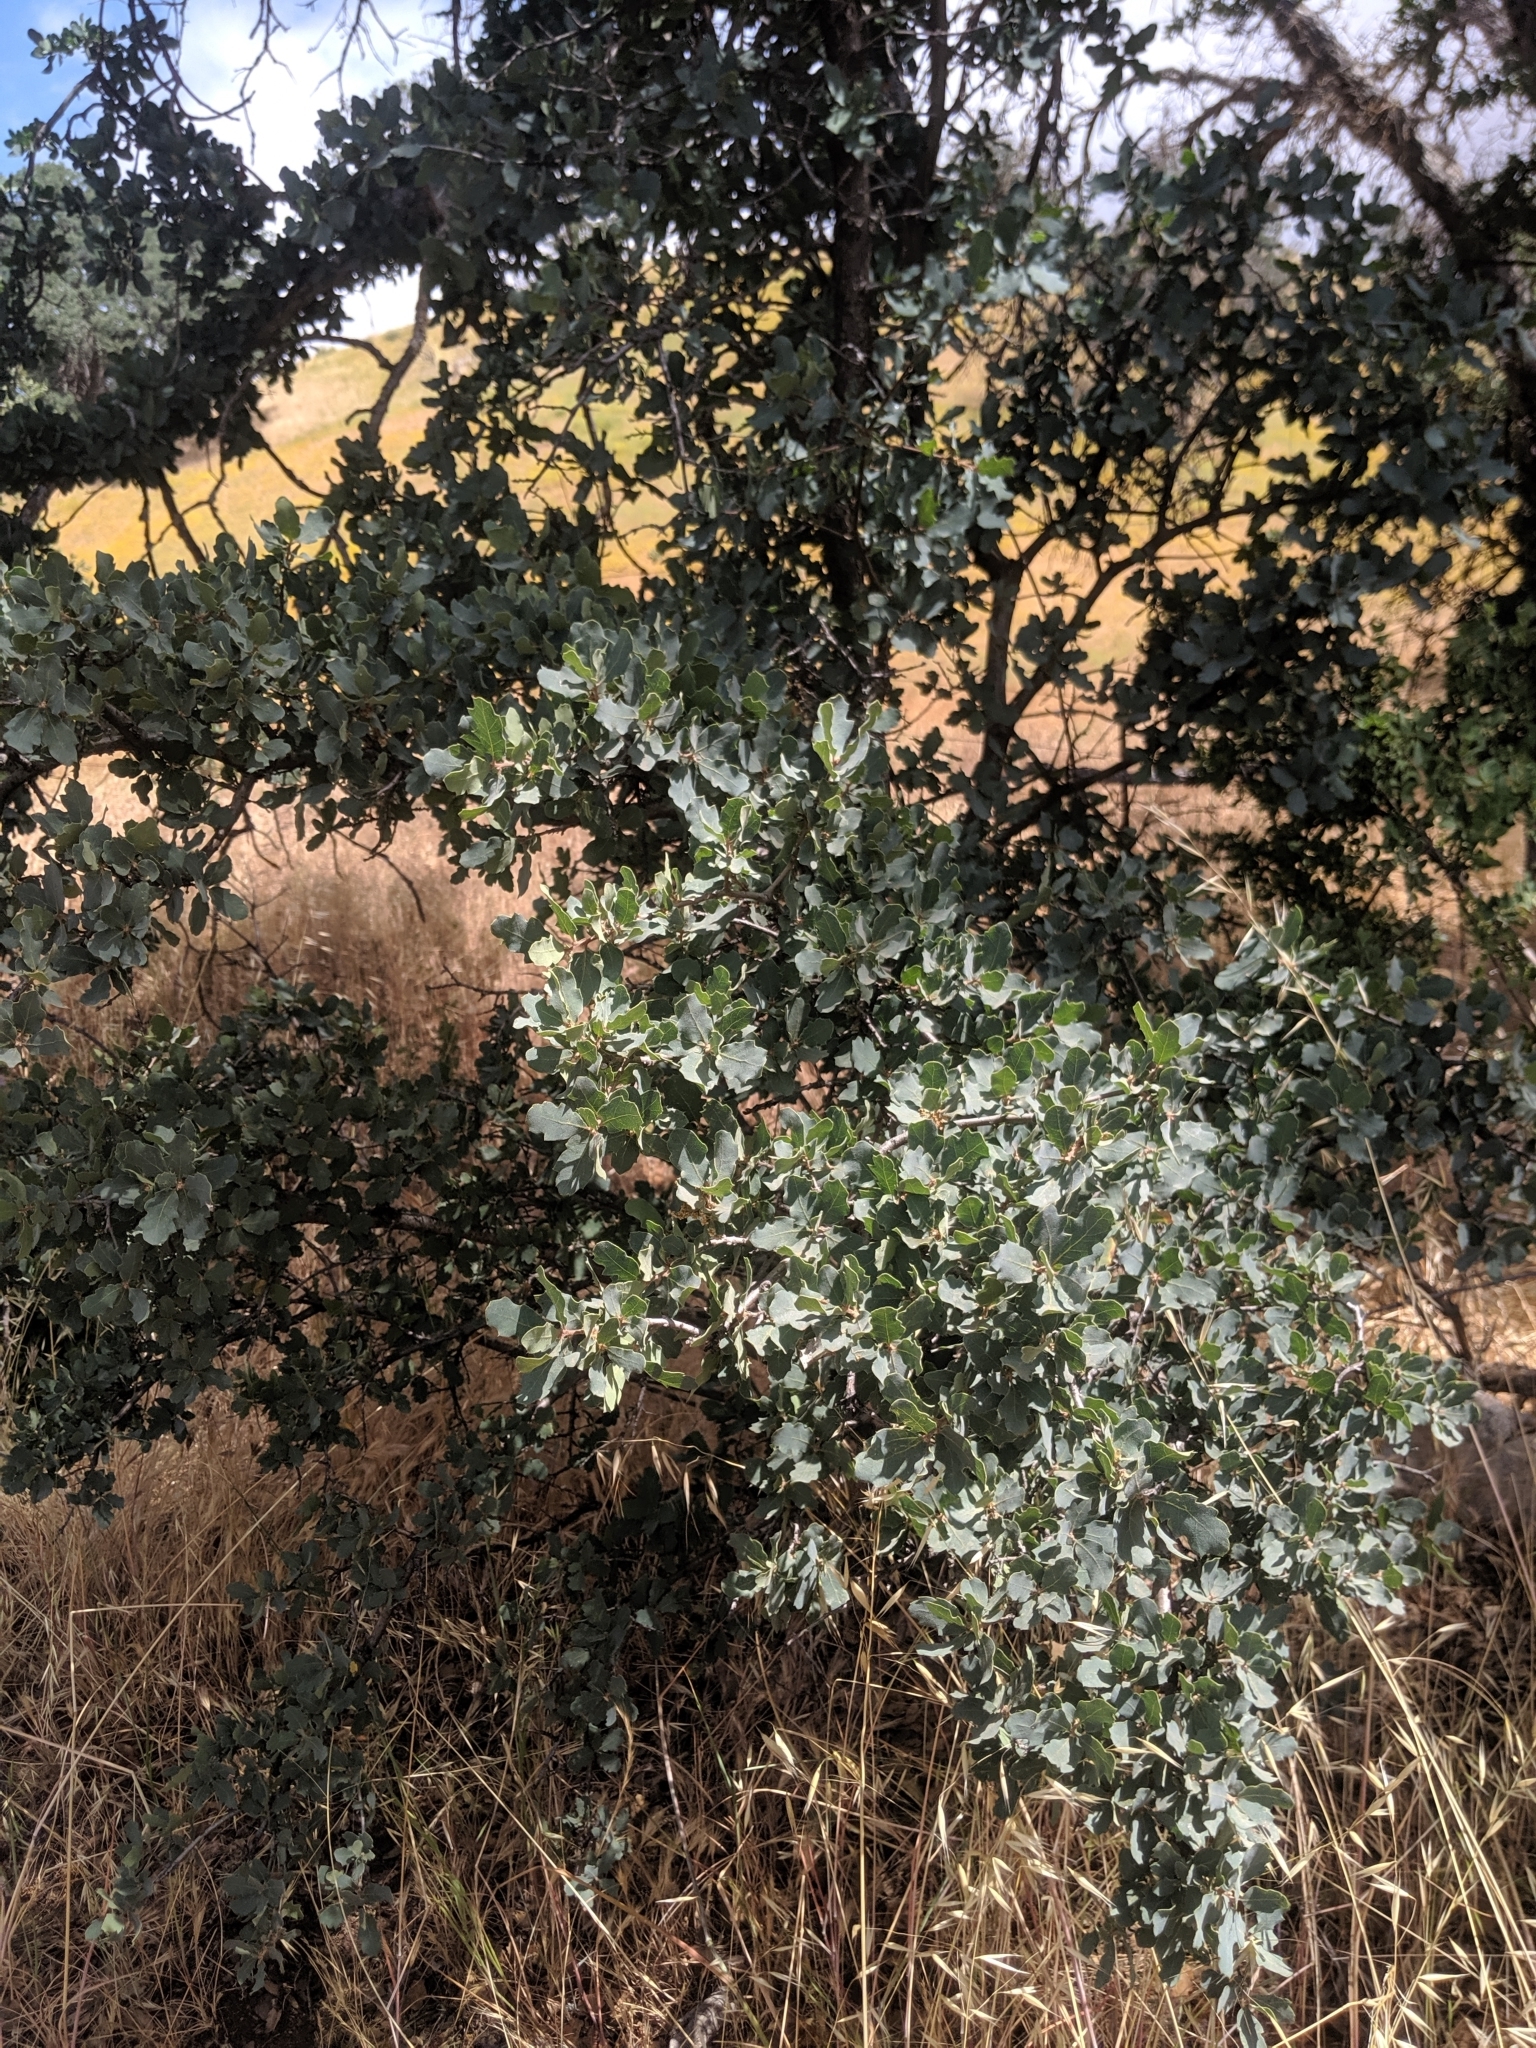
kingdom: Plantae
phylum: Tracheophyta
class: Magnoliopsida
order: Fagales
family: Fagaceae
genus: Quercus
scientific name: Quercus douglasii
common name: Blue oak
